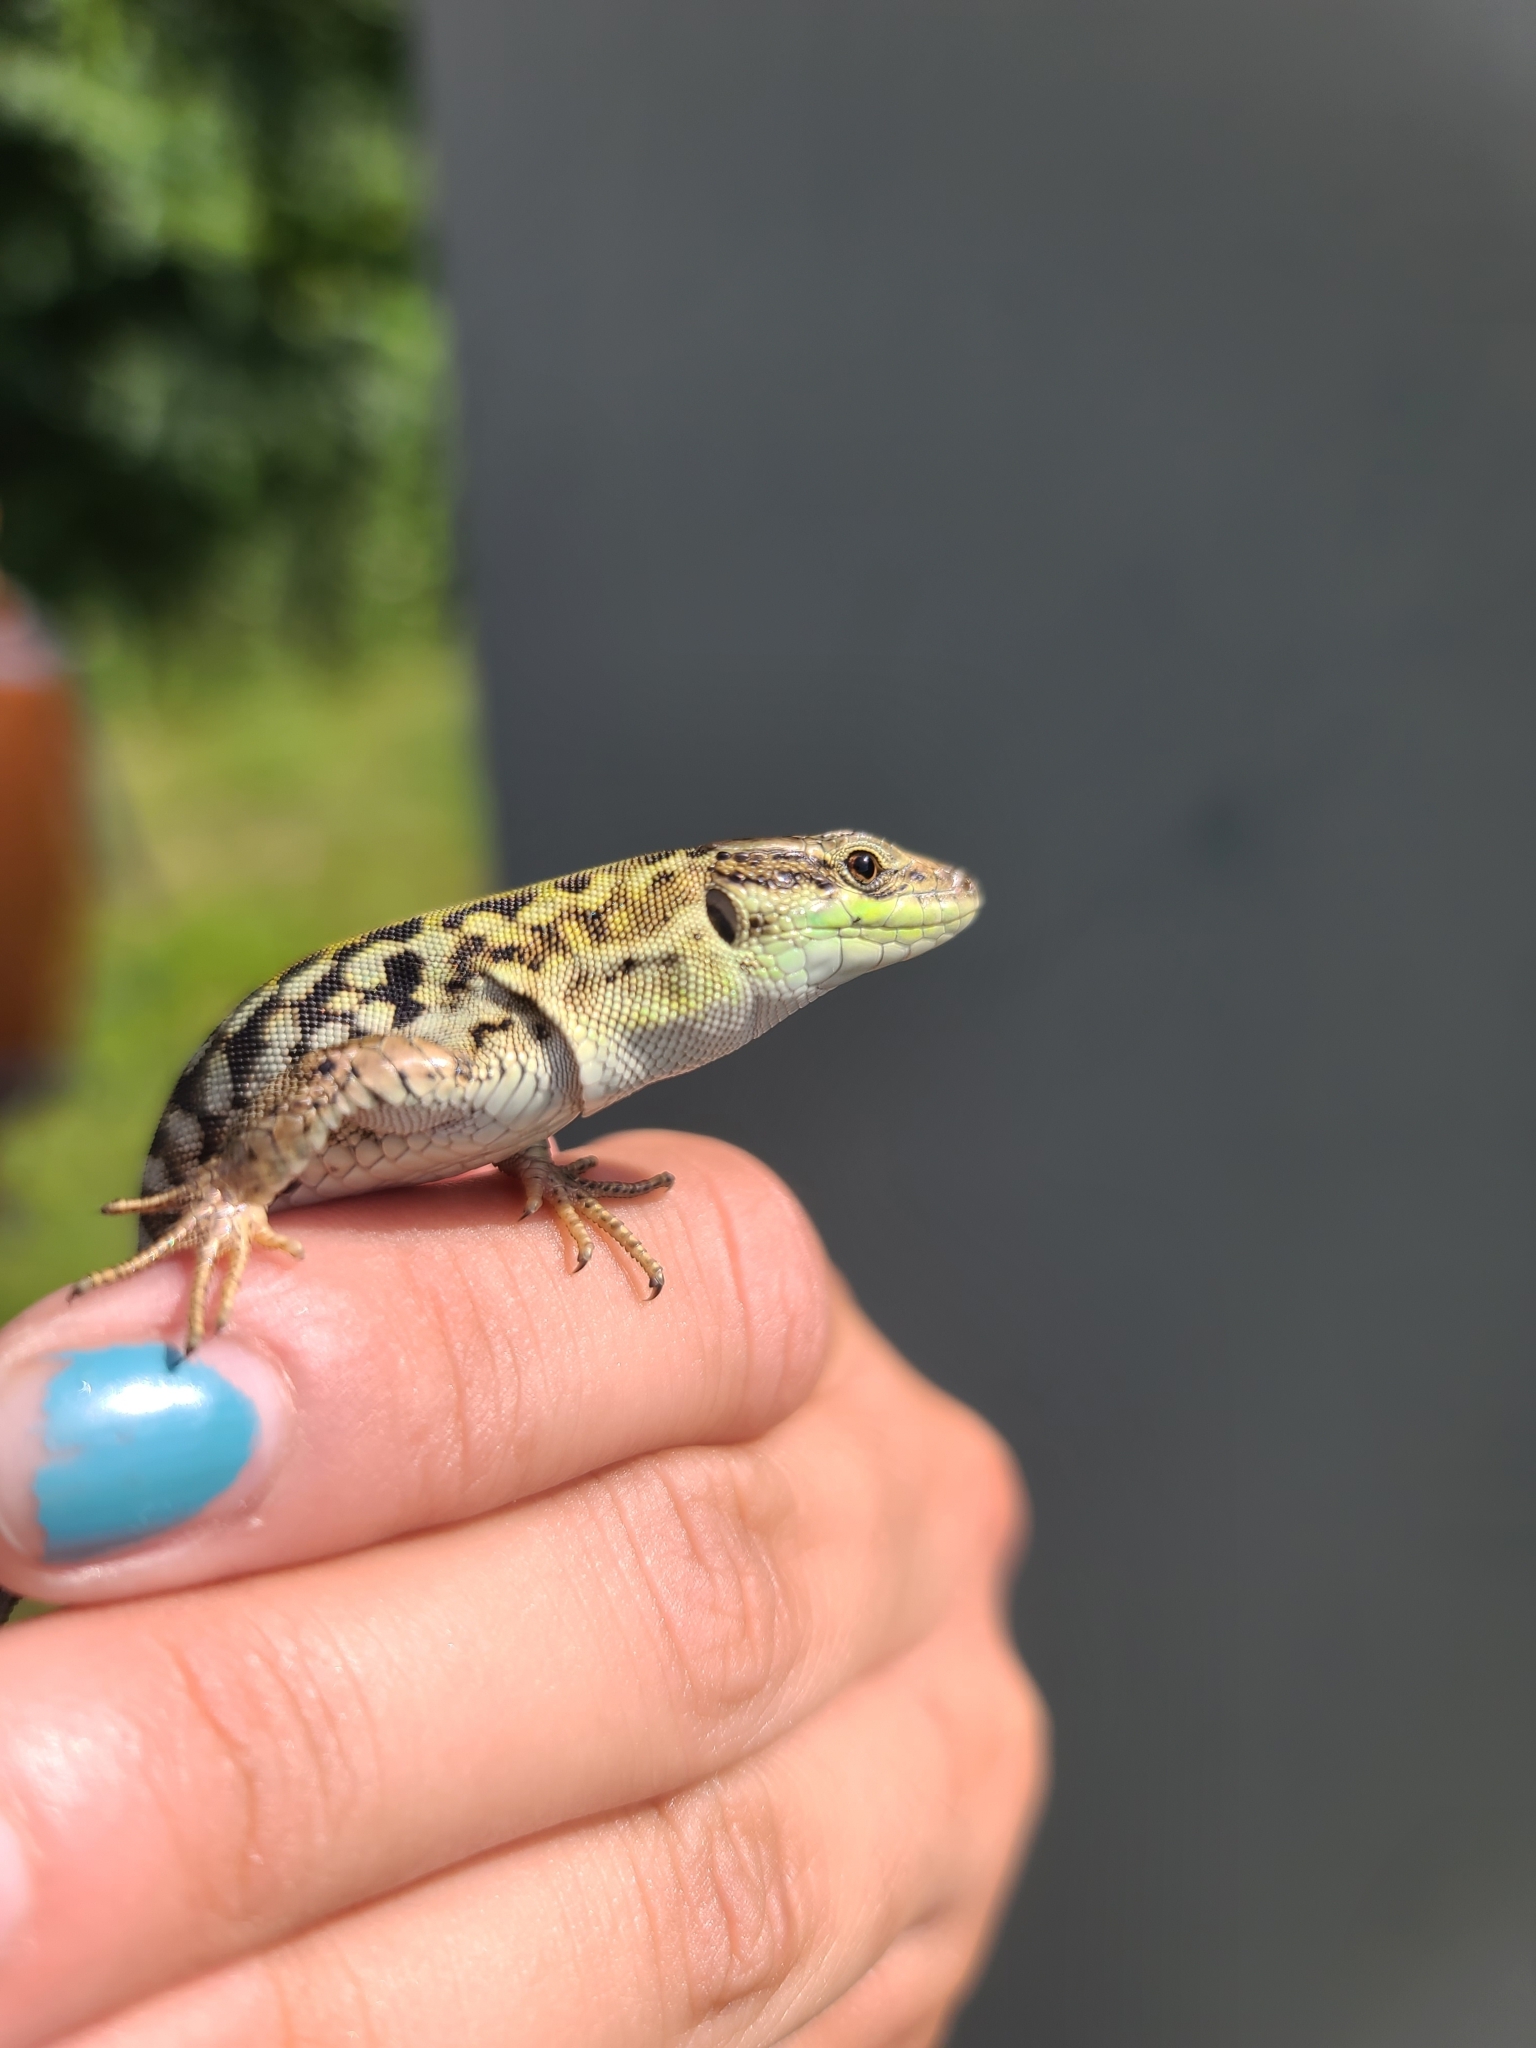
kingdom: Animalia
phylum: Chordata
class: Squamata
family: Lacertidae
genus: Podarcis
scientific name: Podarcis siculus
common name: Italian wall lizard
